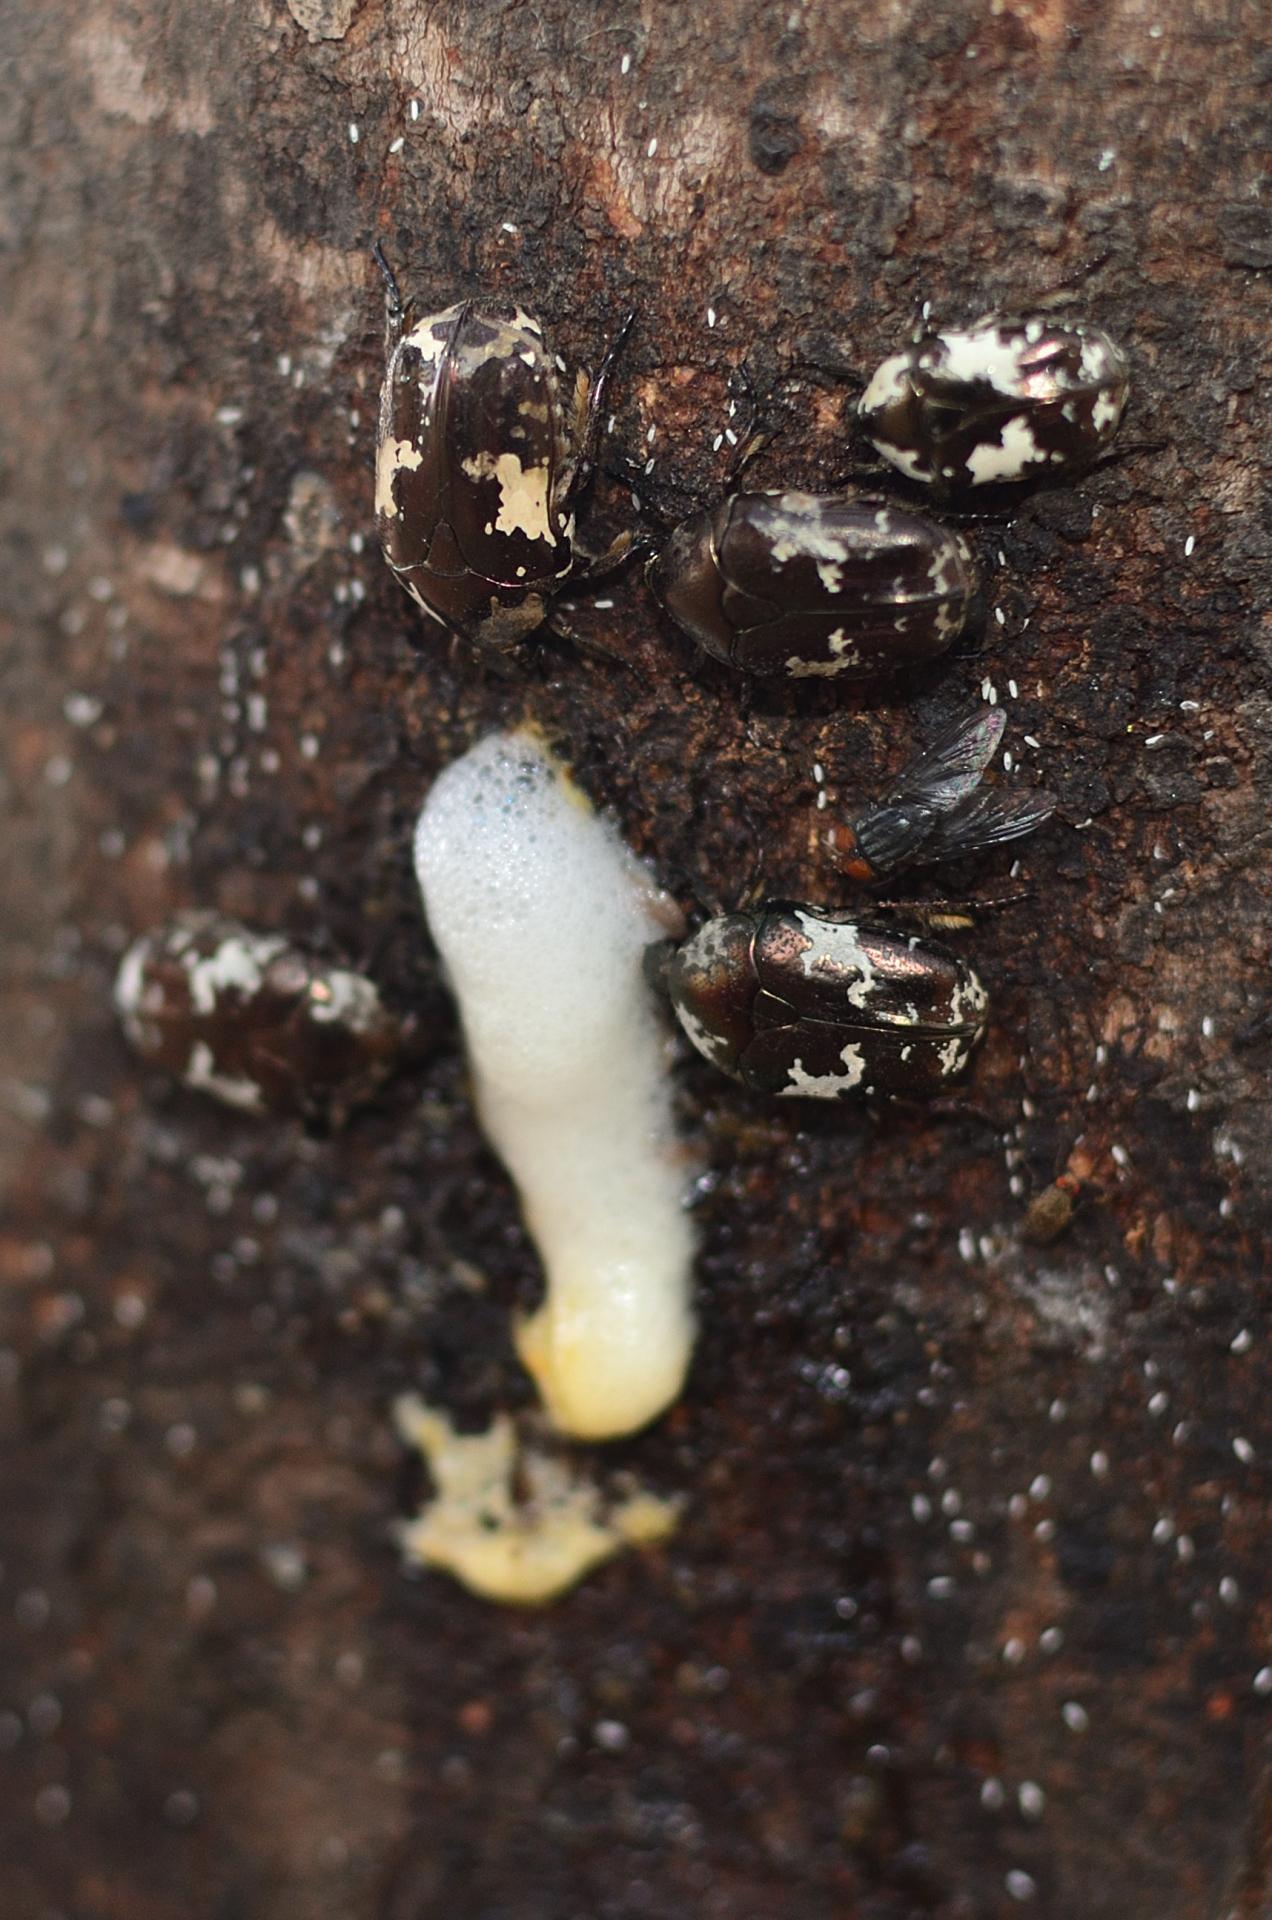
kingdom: Animalia
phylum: Arthropoda
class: Insecta
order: Coleoptera
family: Scarabaeidae
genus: Protaetia
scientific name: Protaetia aurichalcea
